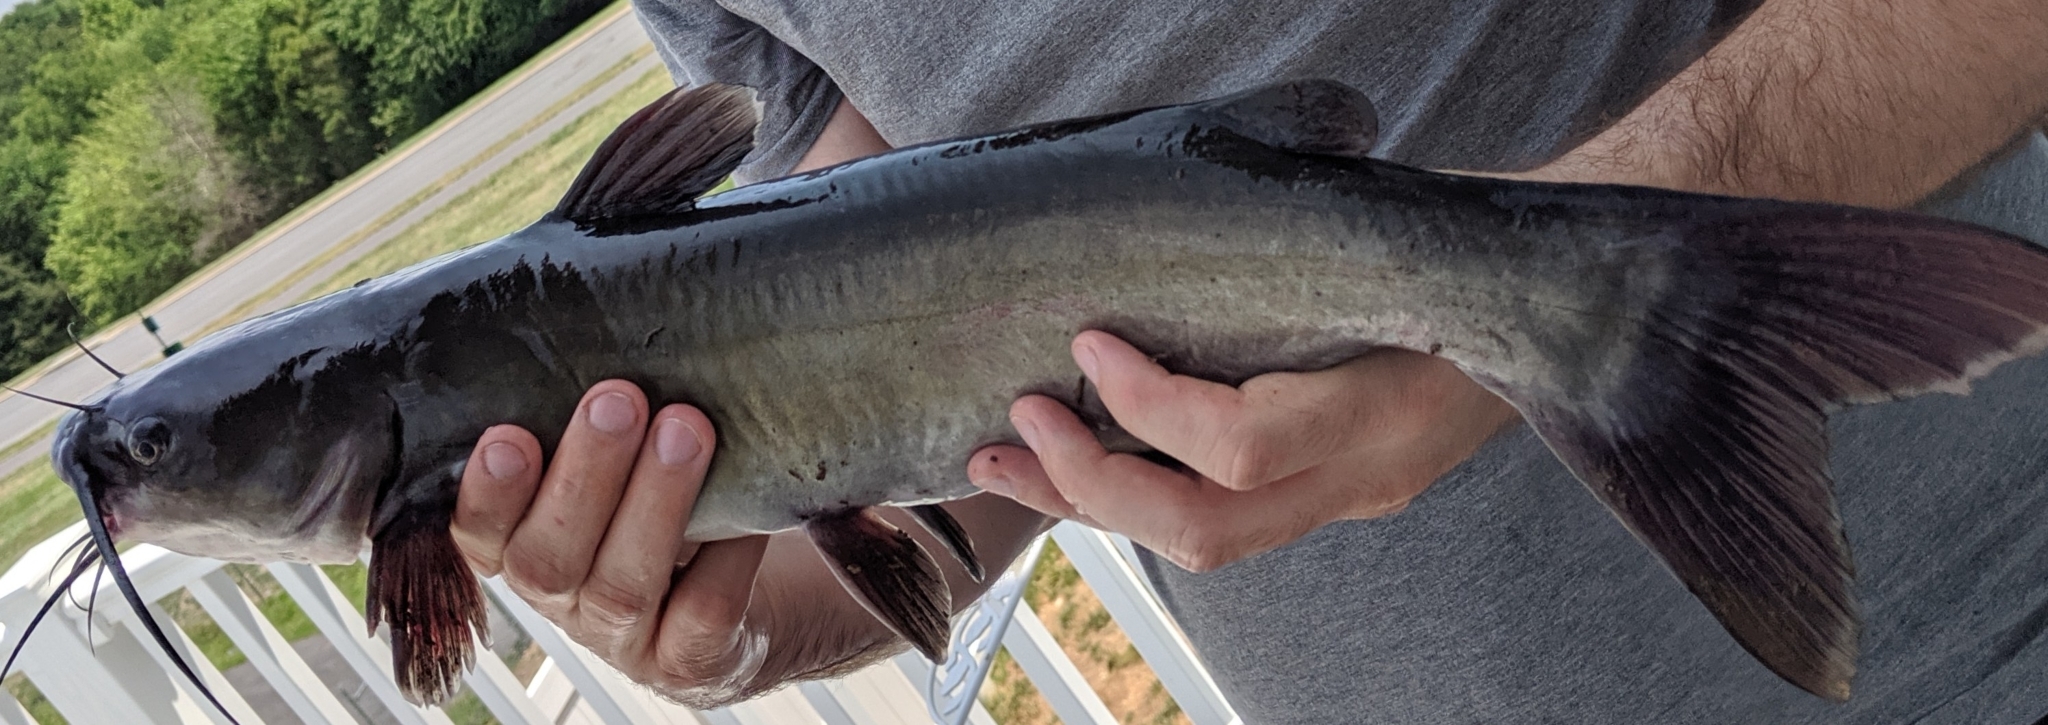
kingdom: Animalia
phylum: Chordata
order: Siluriformes
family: Ictaluridae
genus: Ictalurus
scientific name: Ictalurus punctatus
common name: Channel catfish
